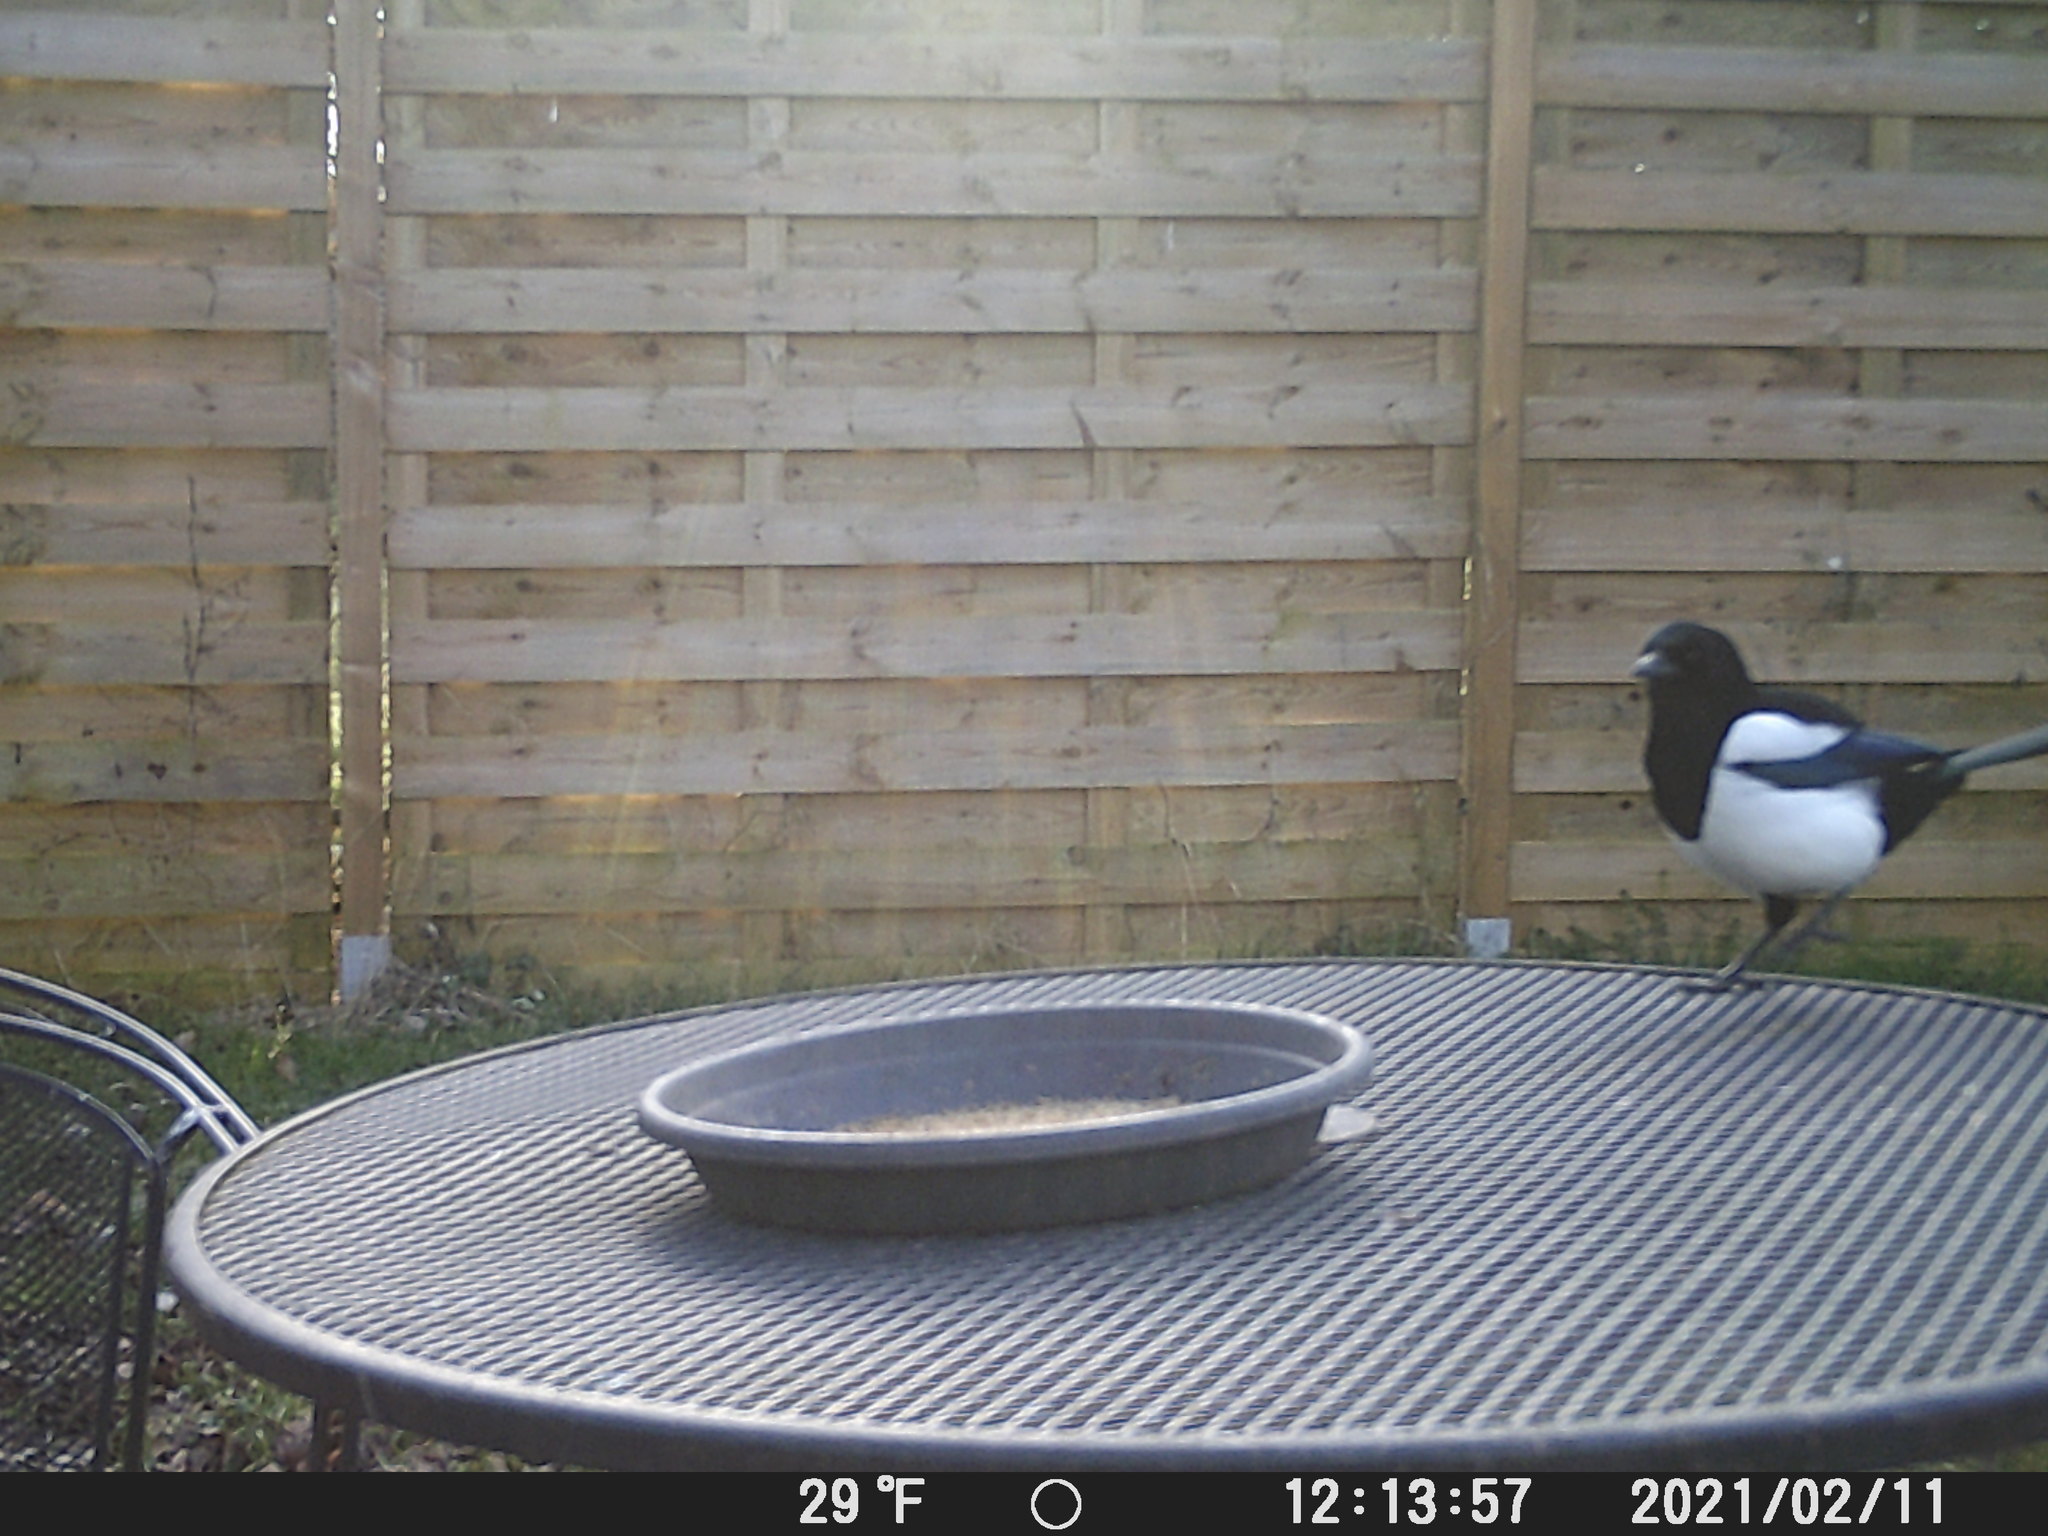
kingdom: Animalia
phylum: Chordata
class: Aves
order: Passeriformes
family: Corvidae
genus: Pica
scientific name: Pica pica
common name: Eurasian magpie
